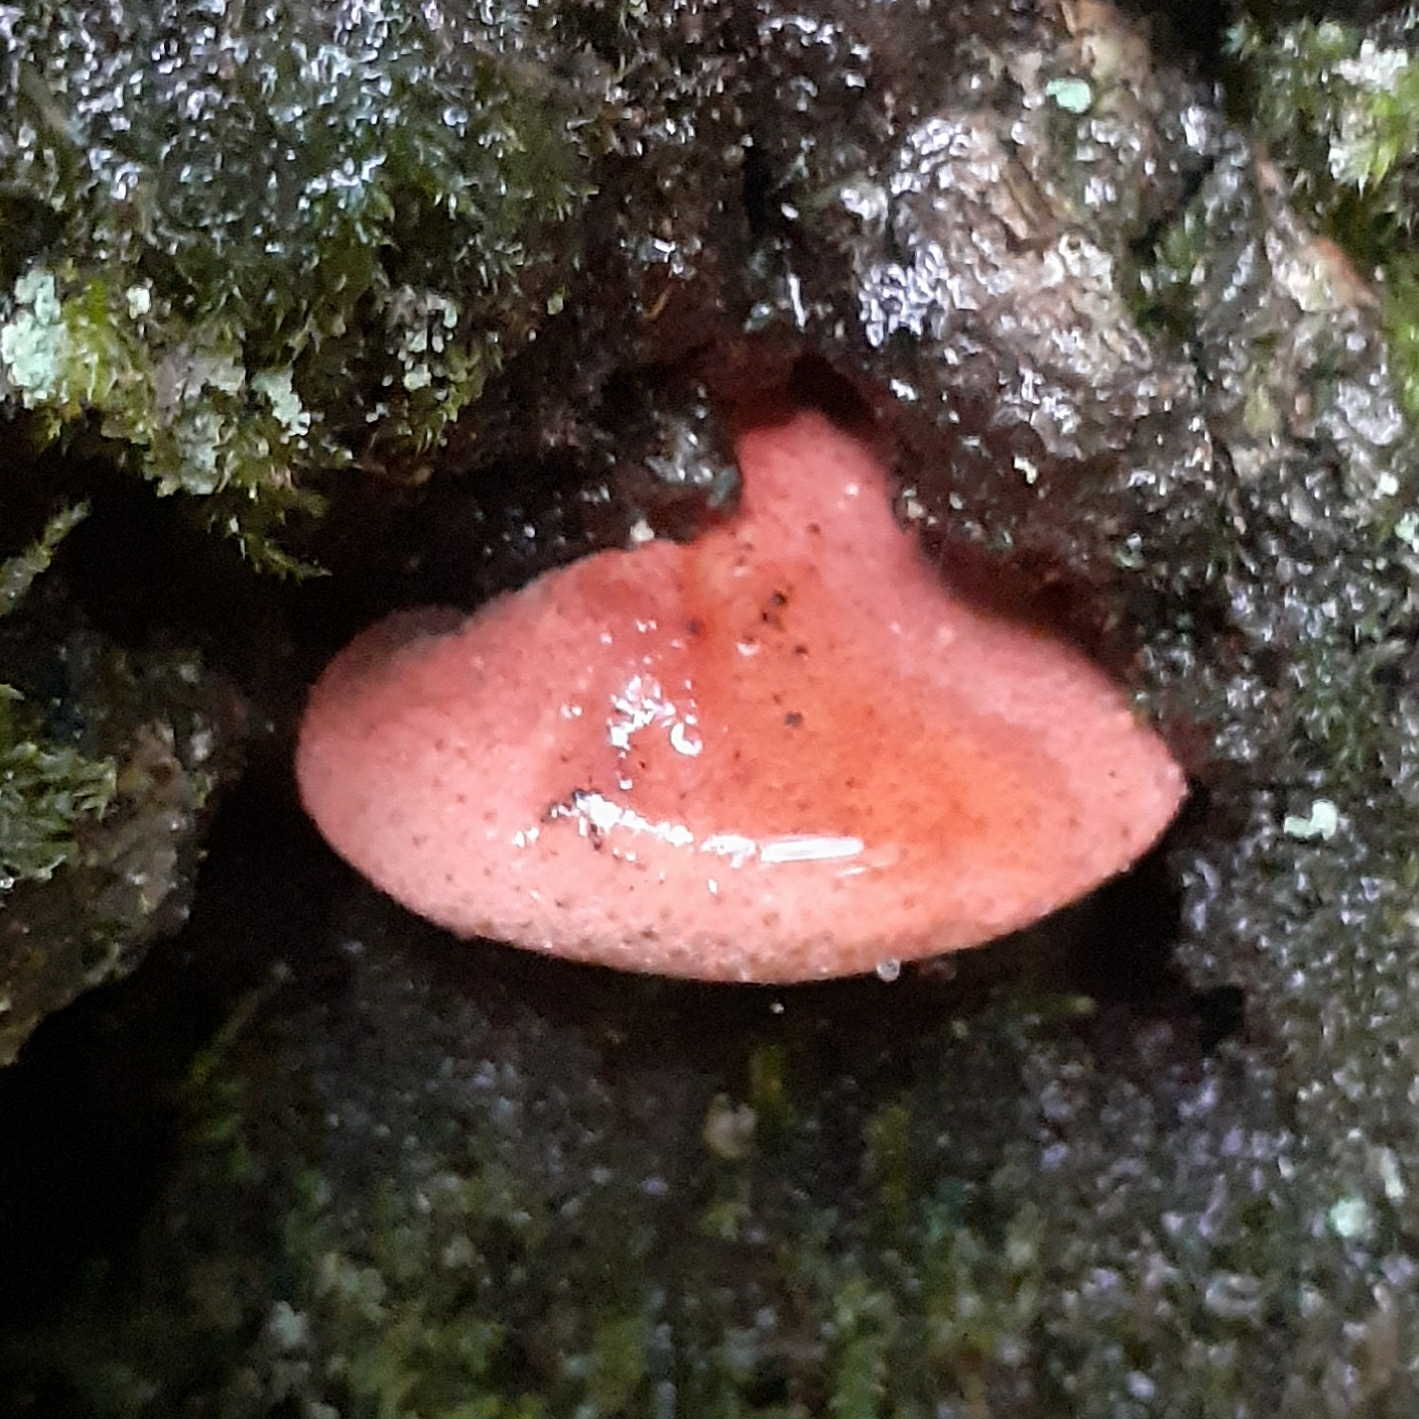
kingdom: Fungi
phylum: Basidiomycota
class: Agaricomycetes
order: Agaricales
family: Fistulinaceae
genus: Fistulina
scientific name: Fistulina hepatica
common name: Beef-steak fungus
